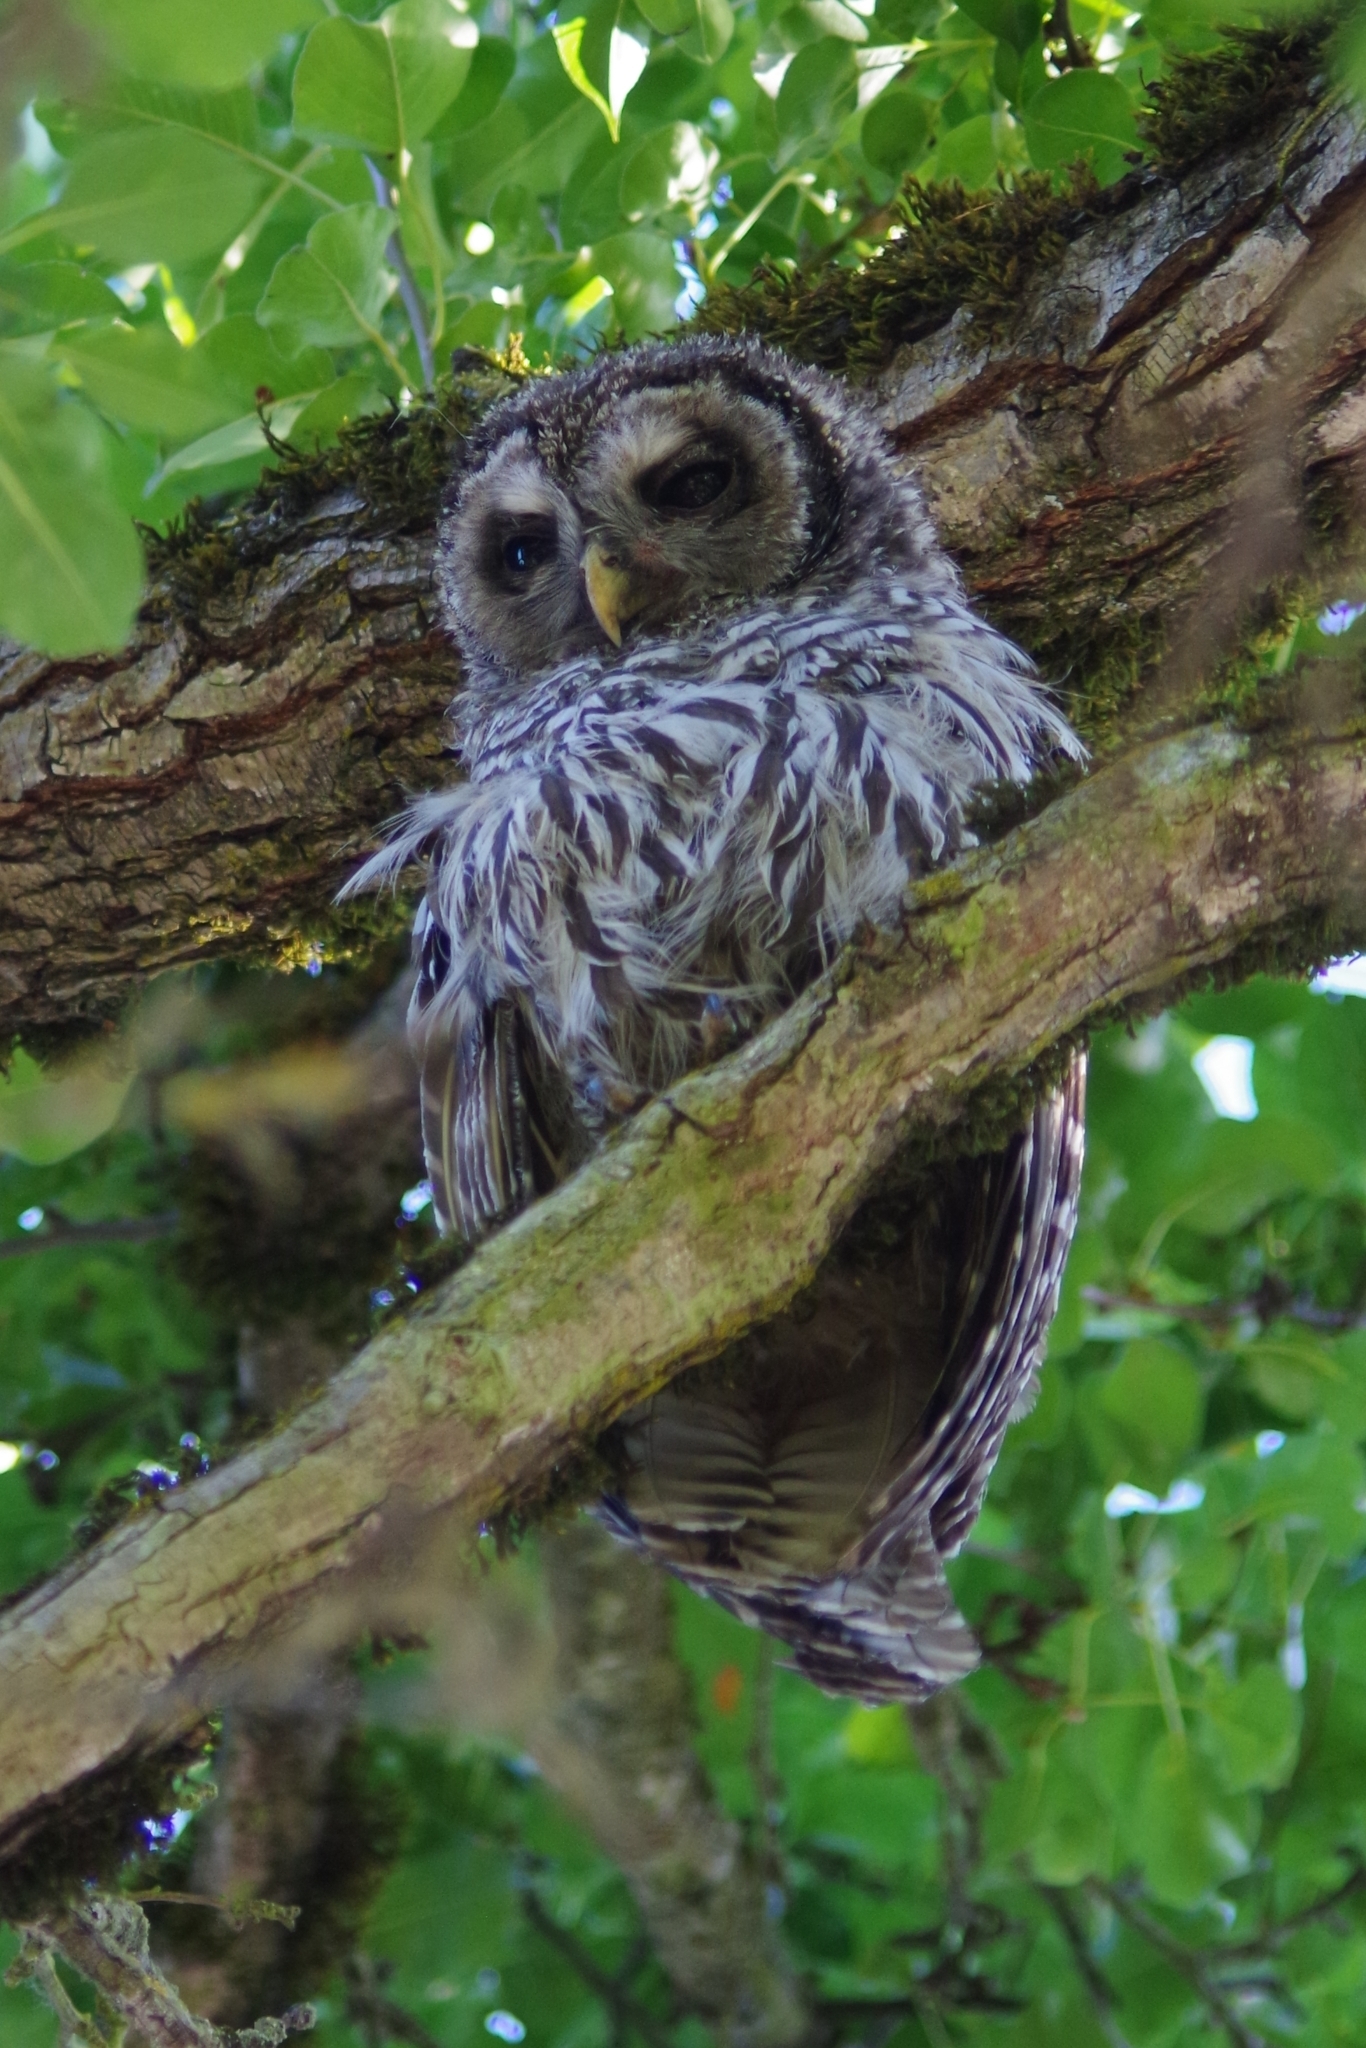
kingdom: Animalia
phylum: Chordata
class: Aves
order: Strigiformes
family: Strigidae
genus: Strix
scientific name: Strix varia
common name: Barred owl
